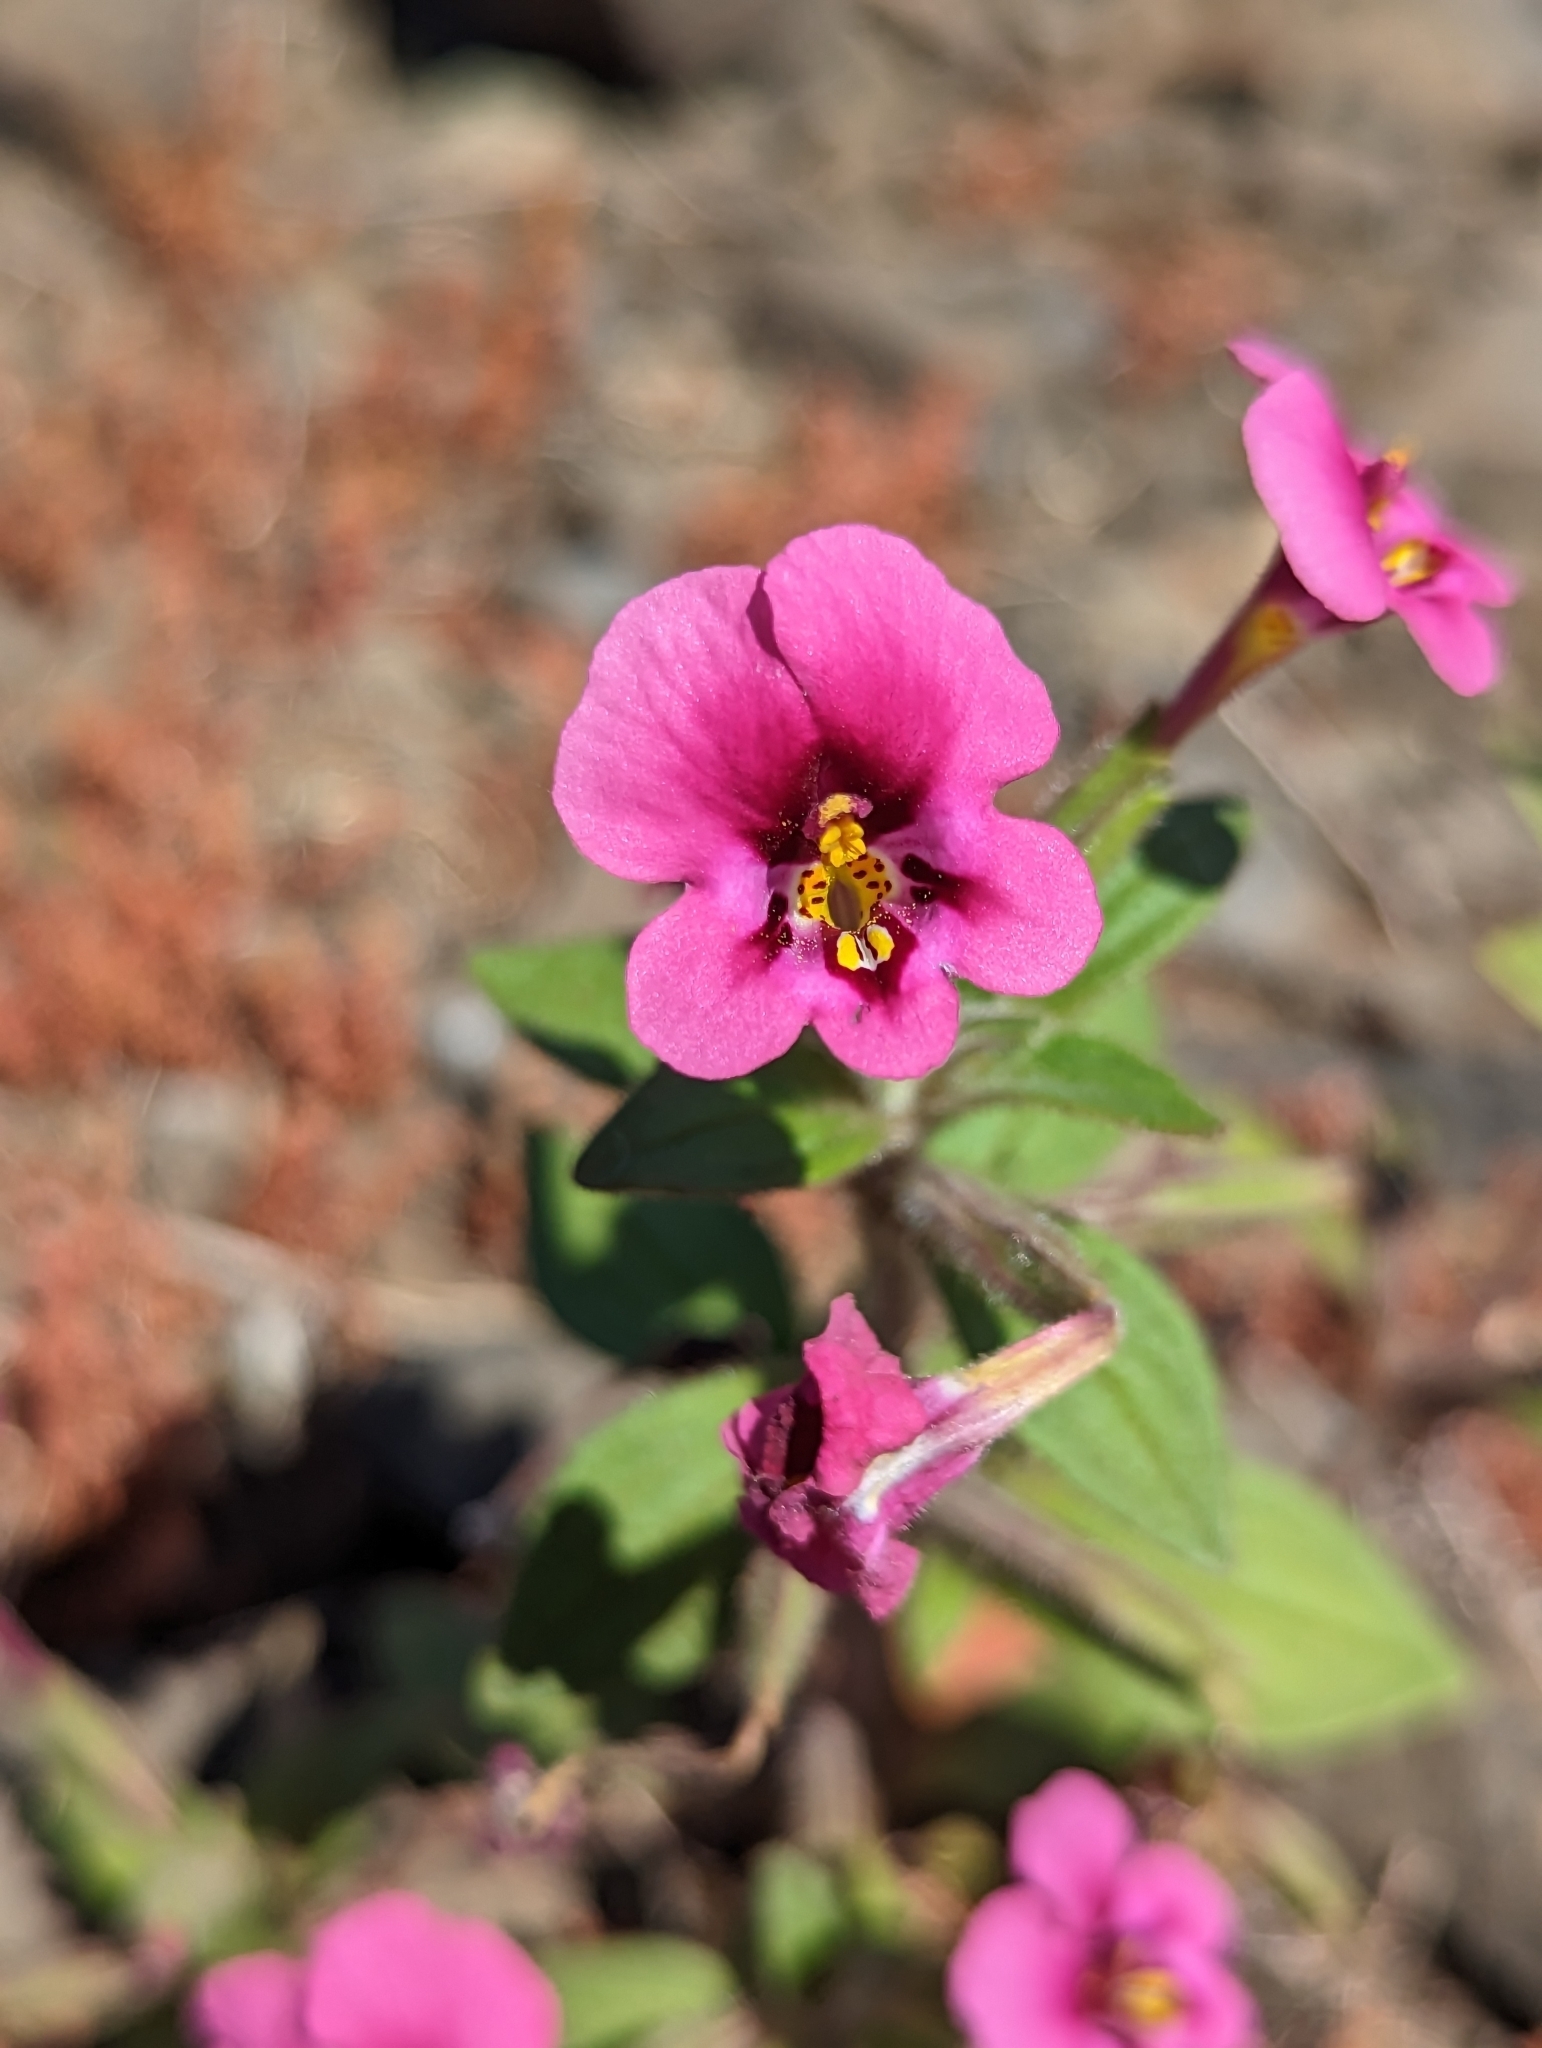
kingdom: Plantae
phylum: Tracheophyta
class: Magnoliopsida
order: Lamiales
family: Phrymaceae
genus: Diplacus
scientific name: Diplacus kelloggii
